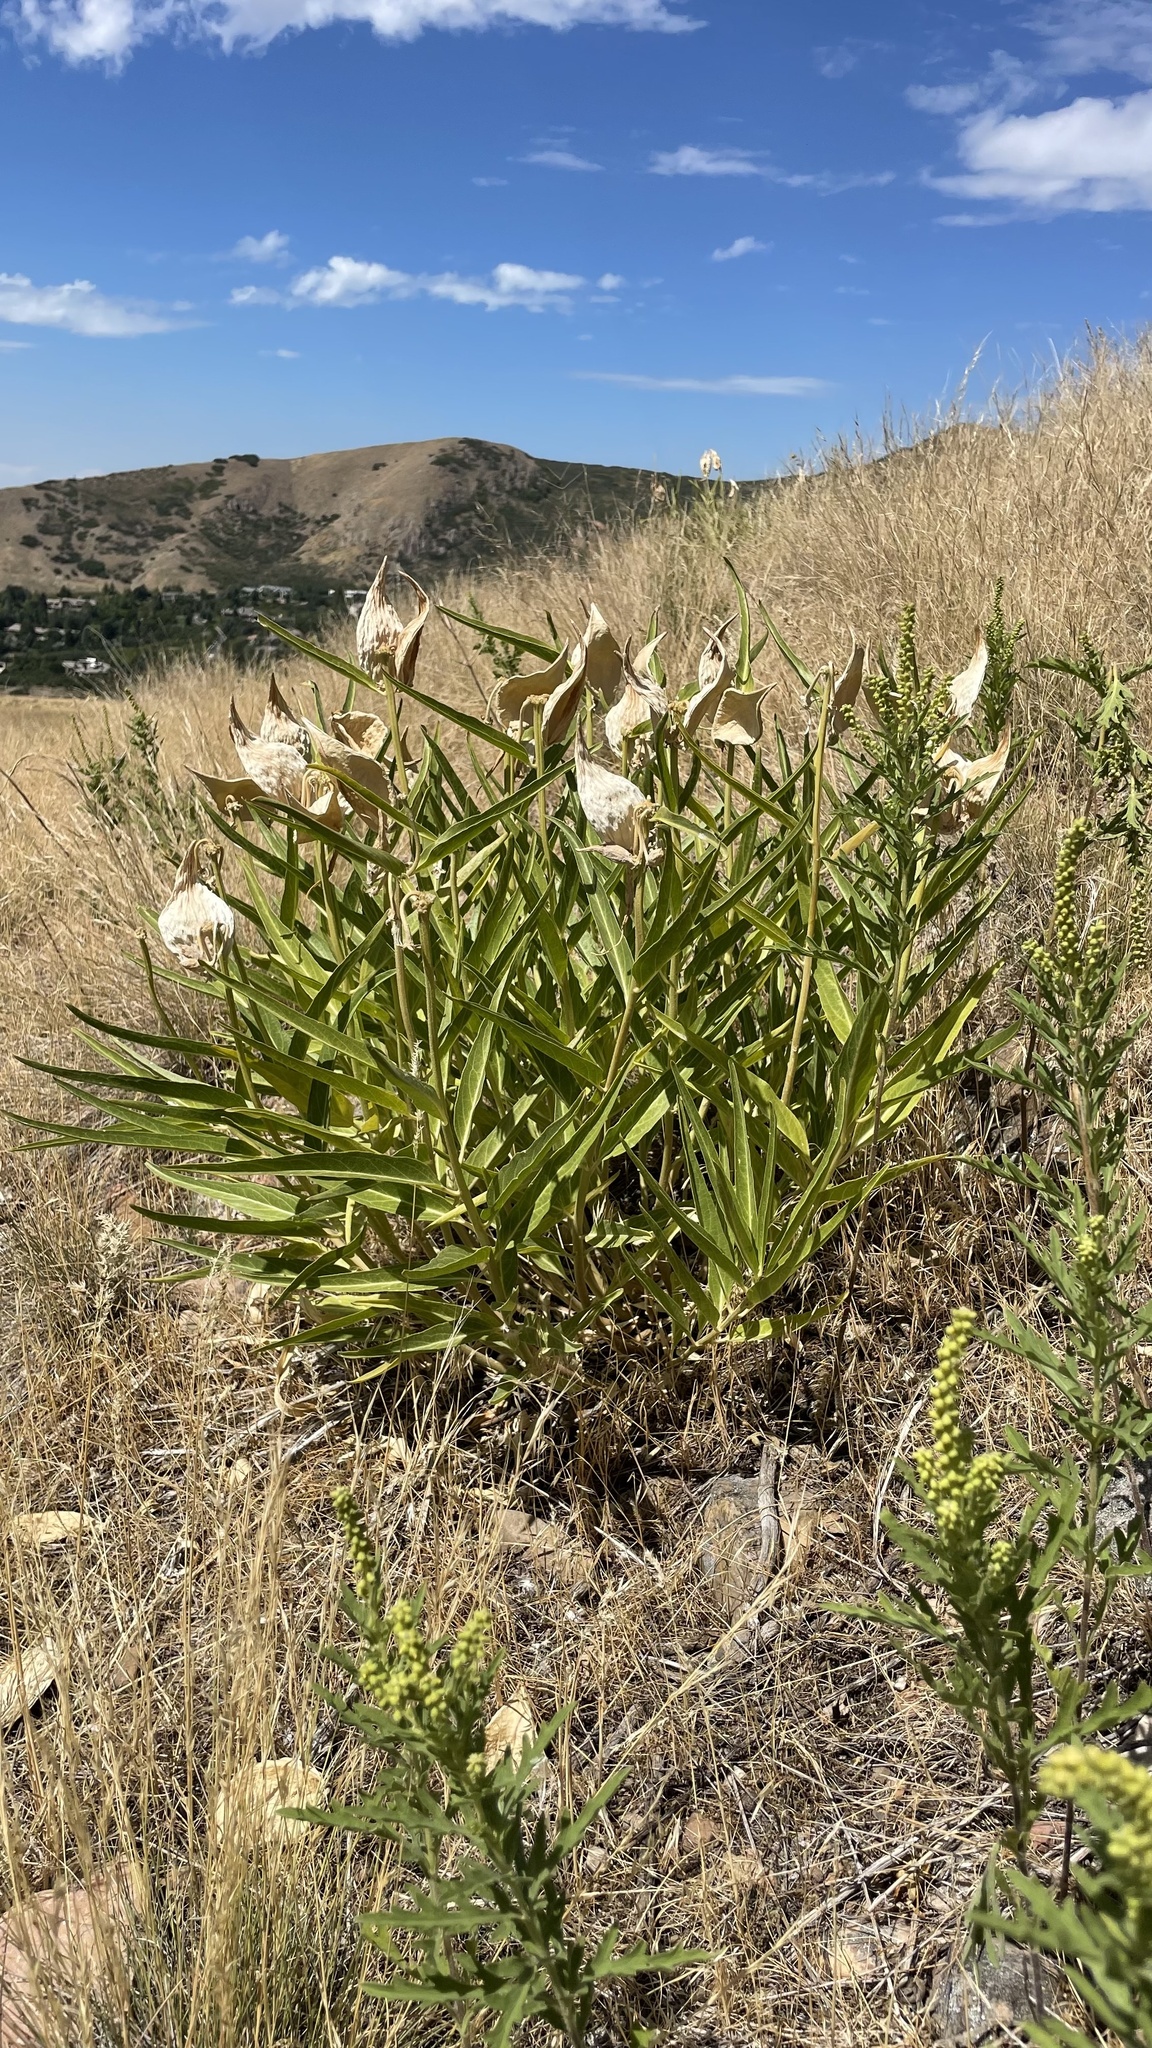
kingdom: Plantae
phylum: Tracheophyta
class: Magnoliopsida
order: Gentianales
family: Apocynaceae
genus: Asclepias
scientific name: Asclepias asperula
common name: Antelope horns
